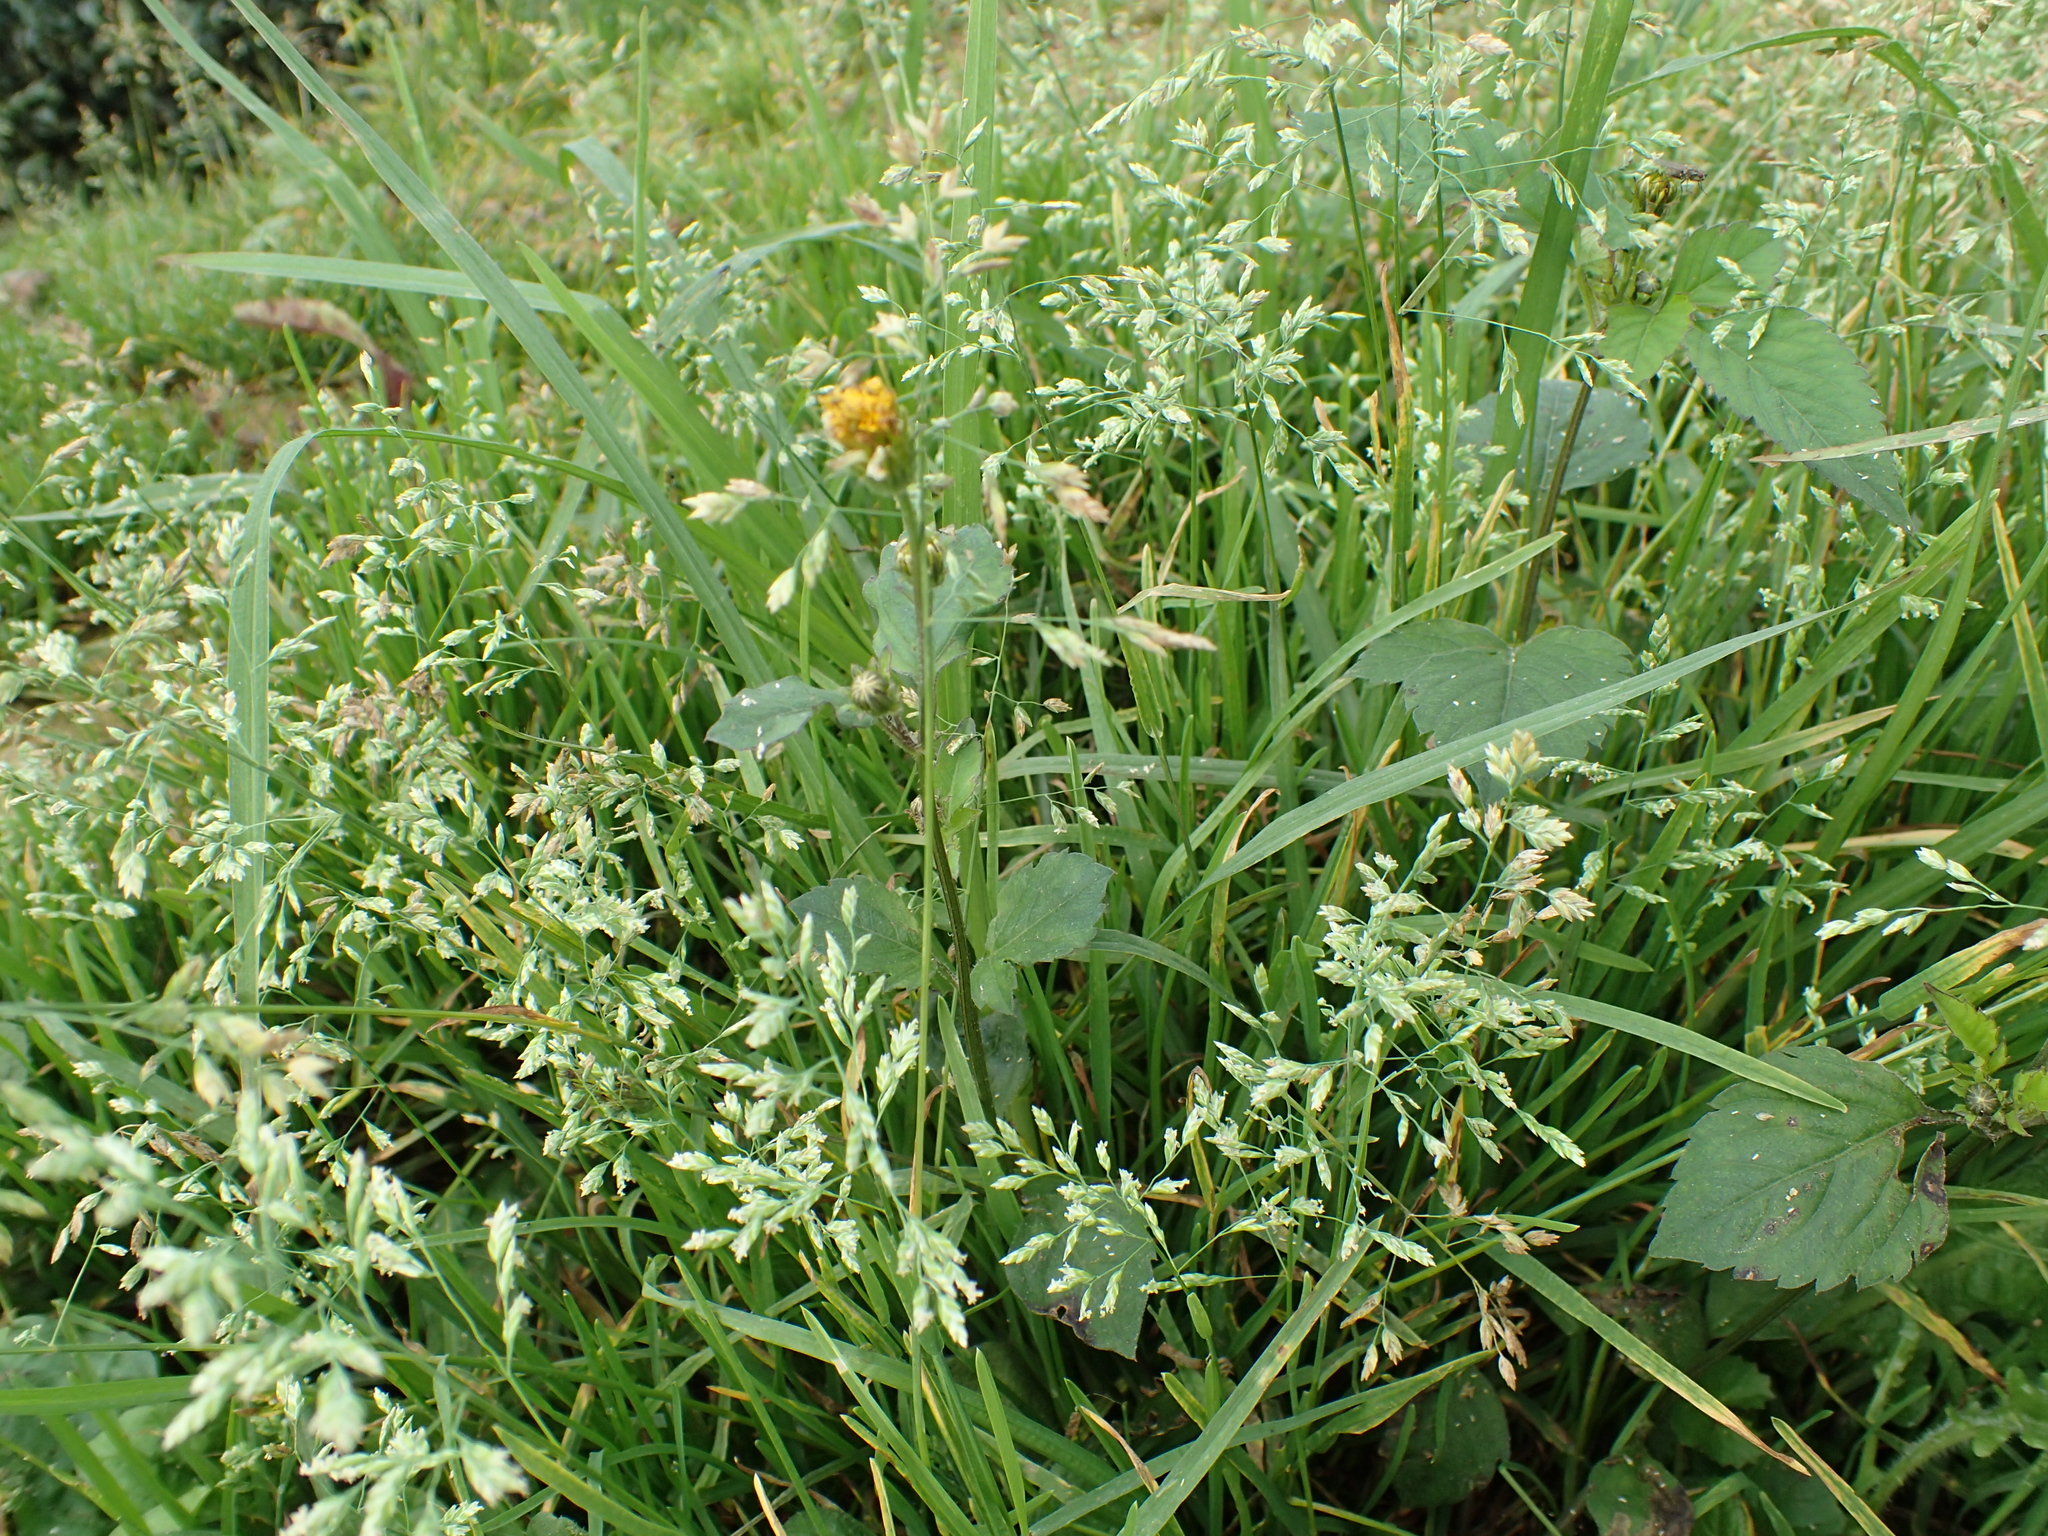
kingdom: Plantae
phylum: Tracheophyta
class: Liliopsida
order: Poales
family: Poaceae
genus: Poa
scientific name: Poa annua
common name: Annual bluegrass
